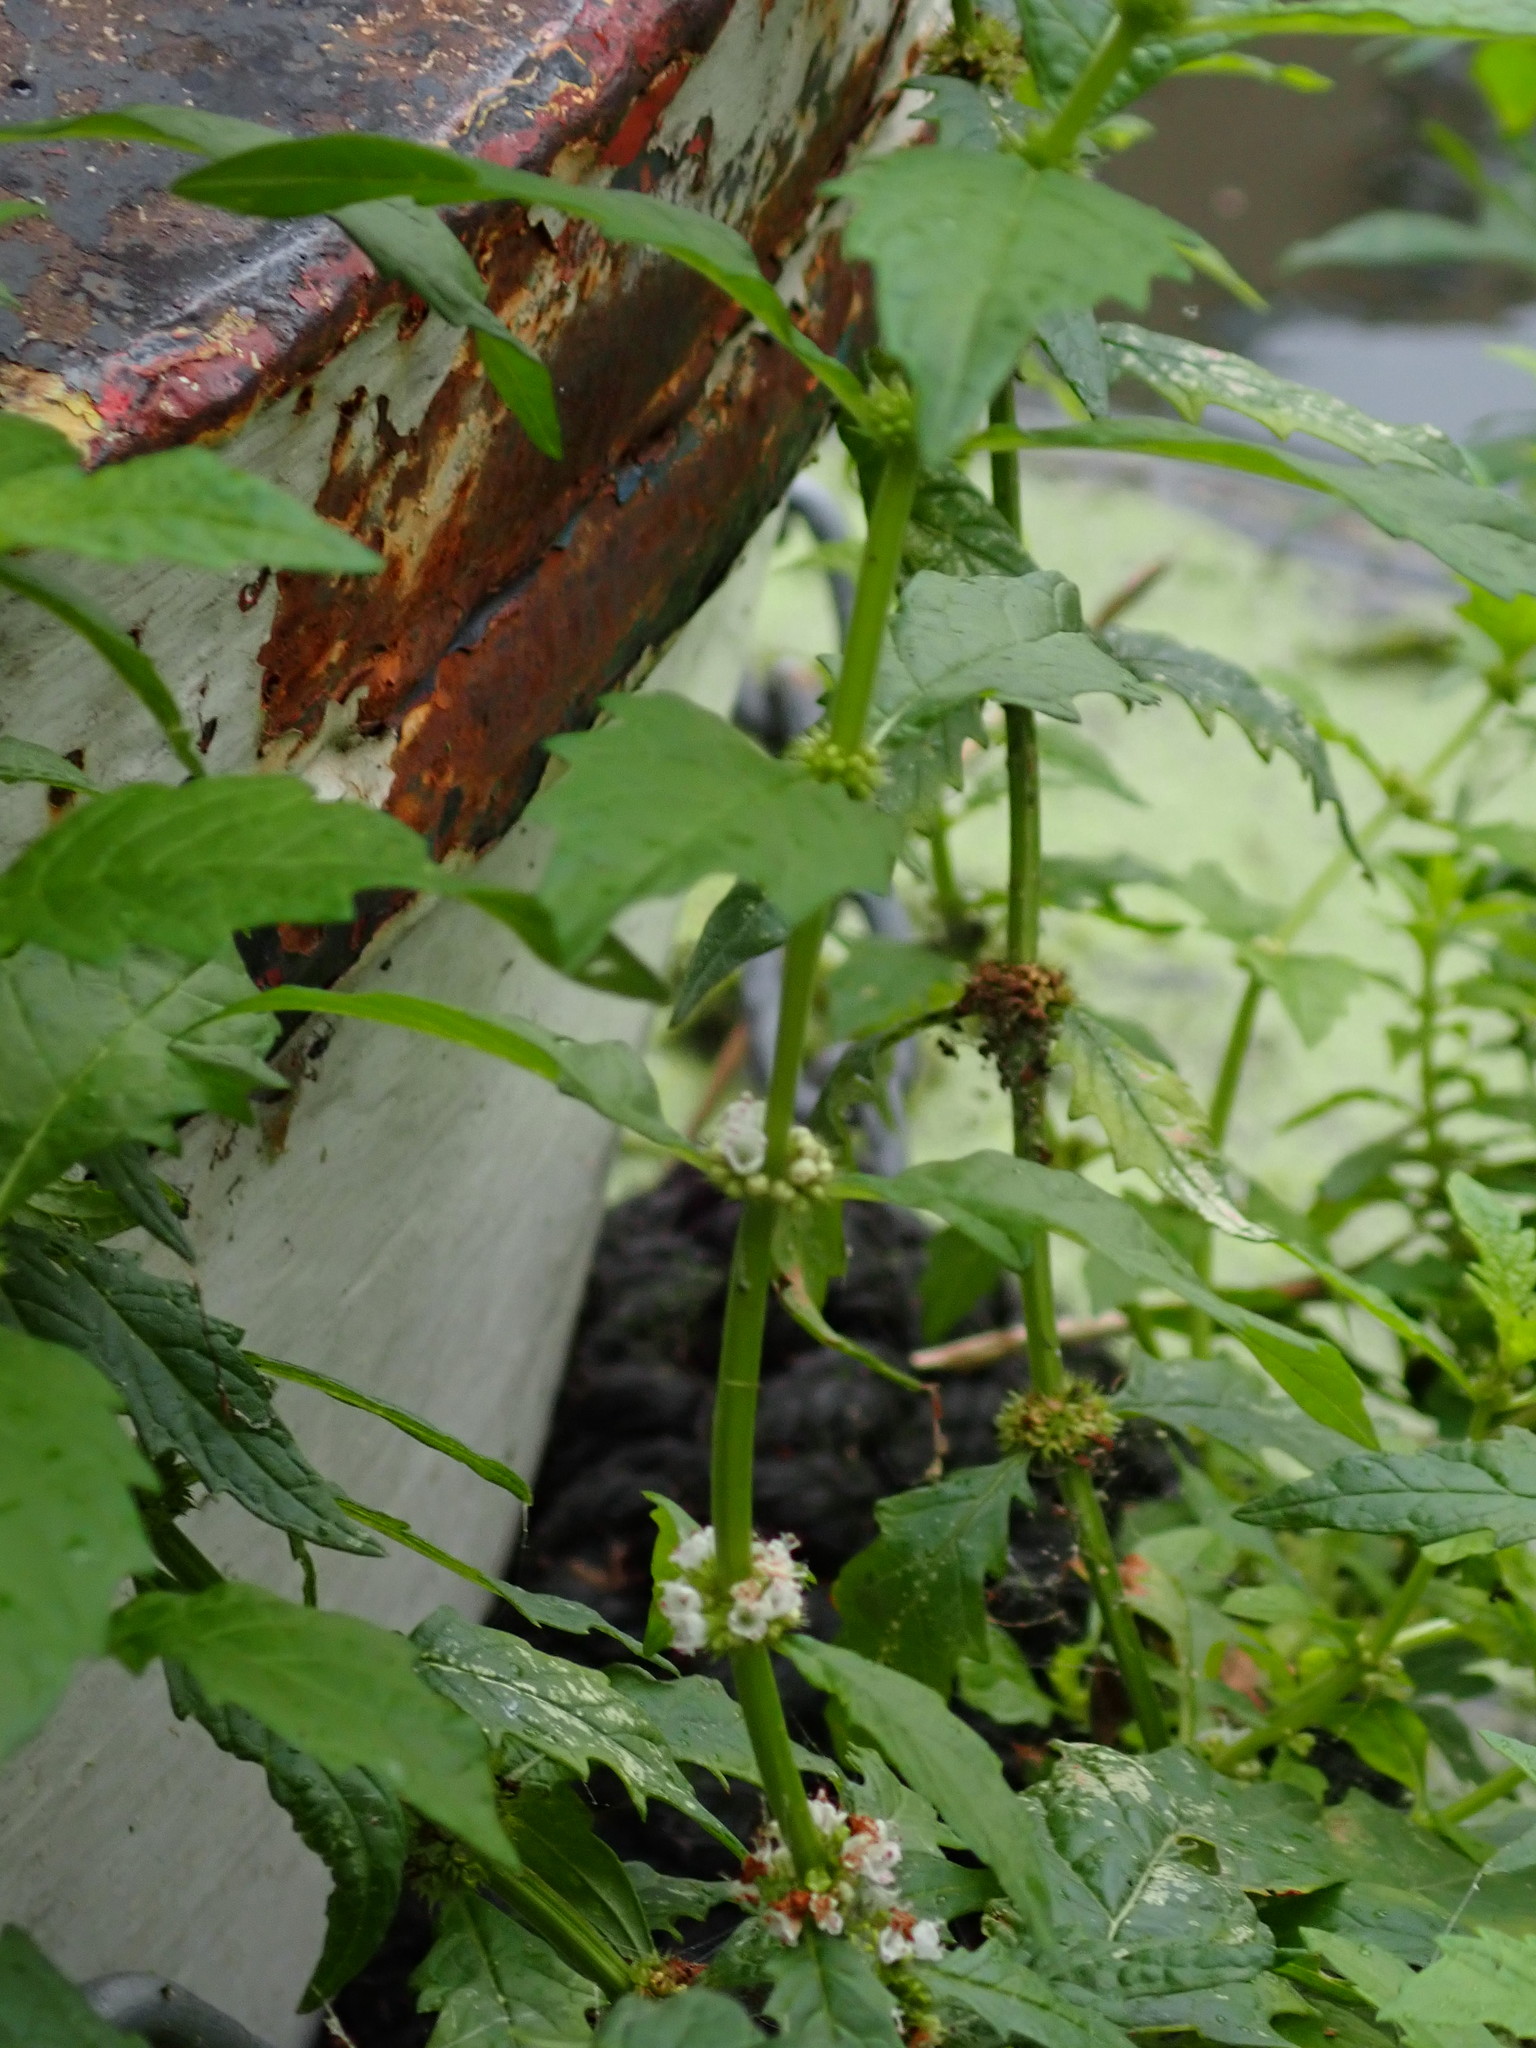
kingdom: Plantae
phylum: Tracheophyta
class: Magnoliopsida
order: Lamiales
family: Lamiaceae
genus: Lycopus
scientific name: Lycopus europaeus
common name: European bugleweed
